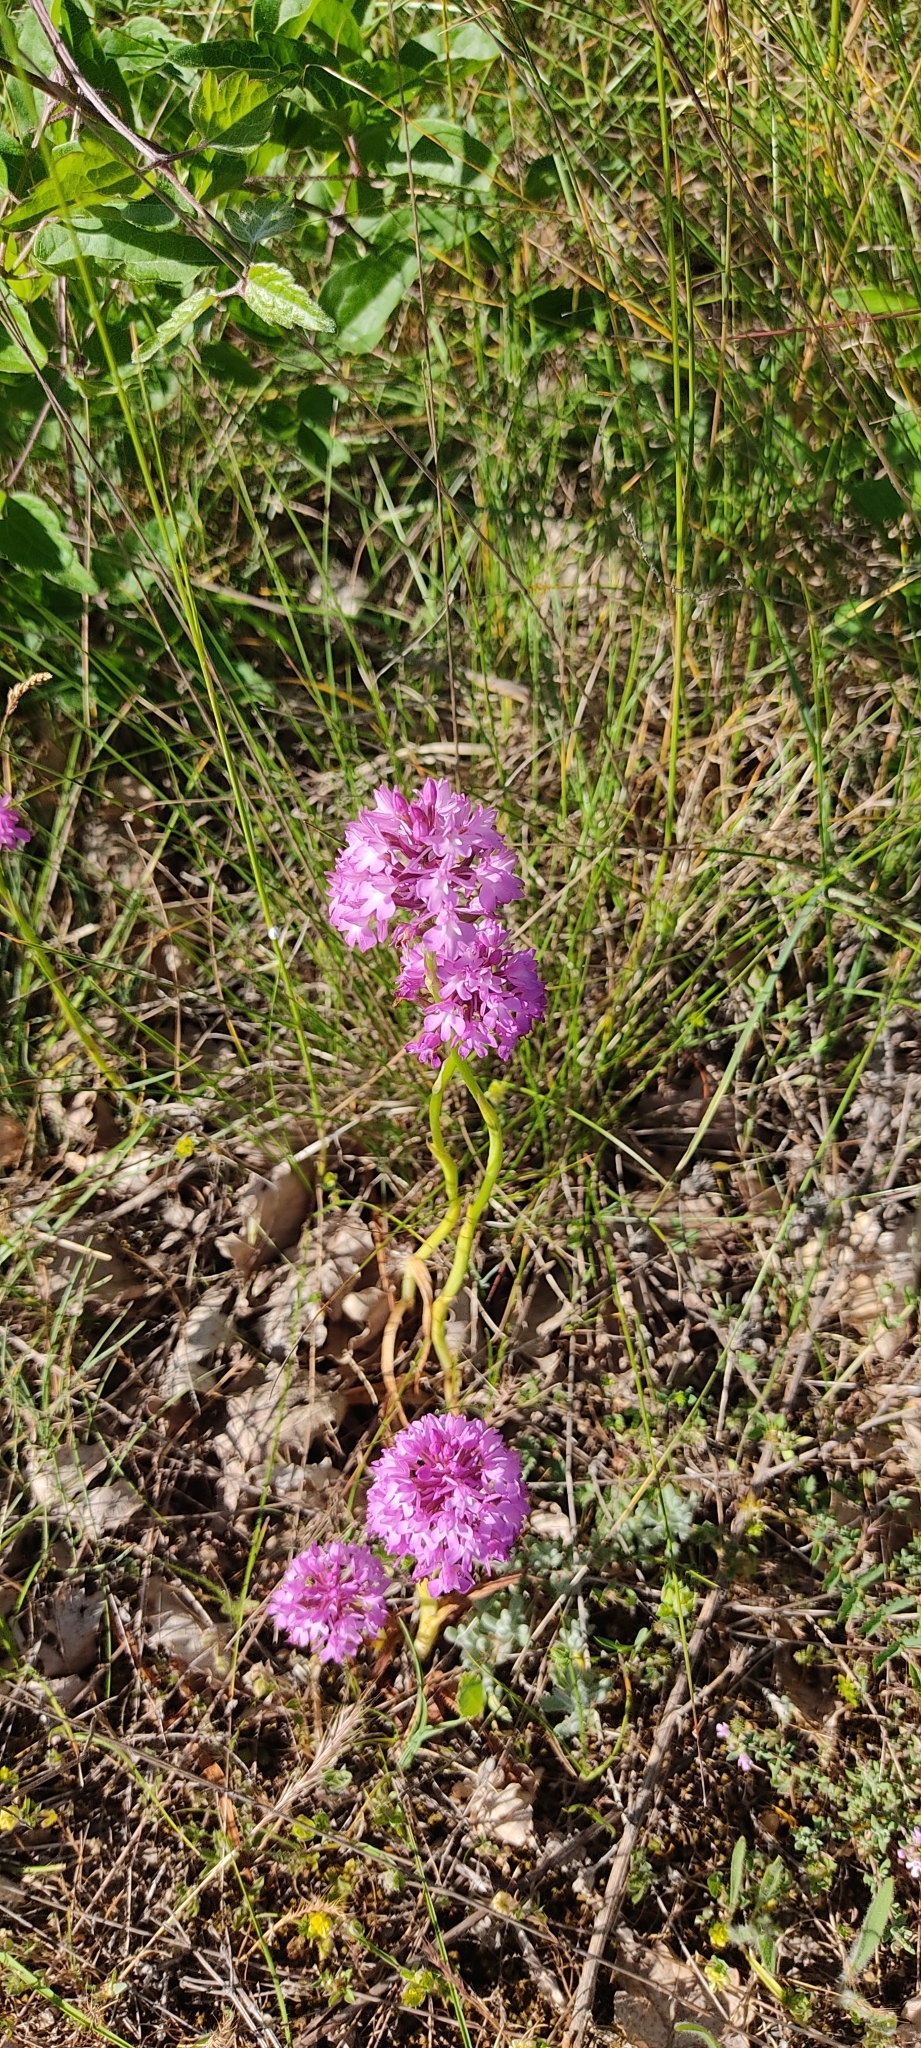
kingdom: Plantae
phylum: Tracheophyta
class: Liliopsida
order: Asparagales
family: Orchidaceae
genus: Anacamptis
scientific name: Anacamptis pyramidalis
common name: Pyramidal orchid
